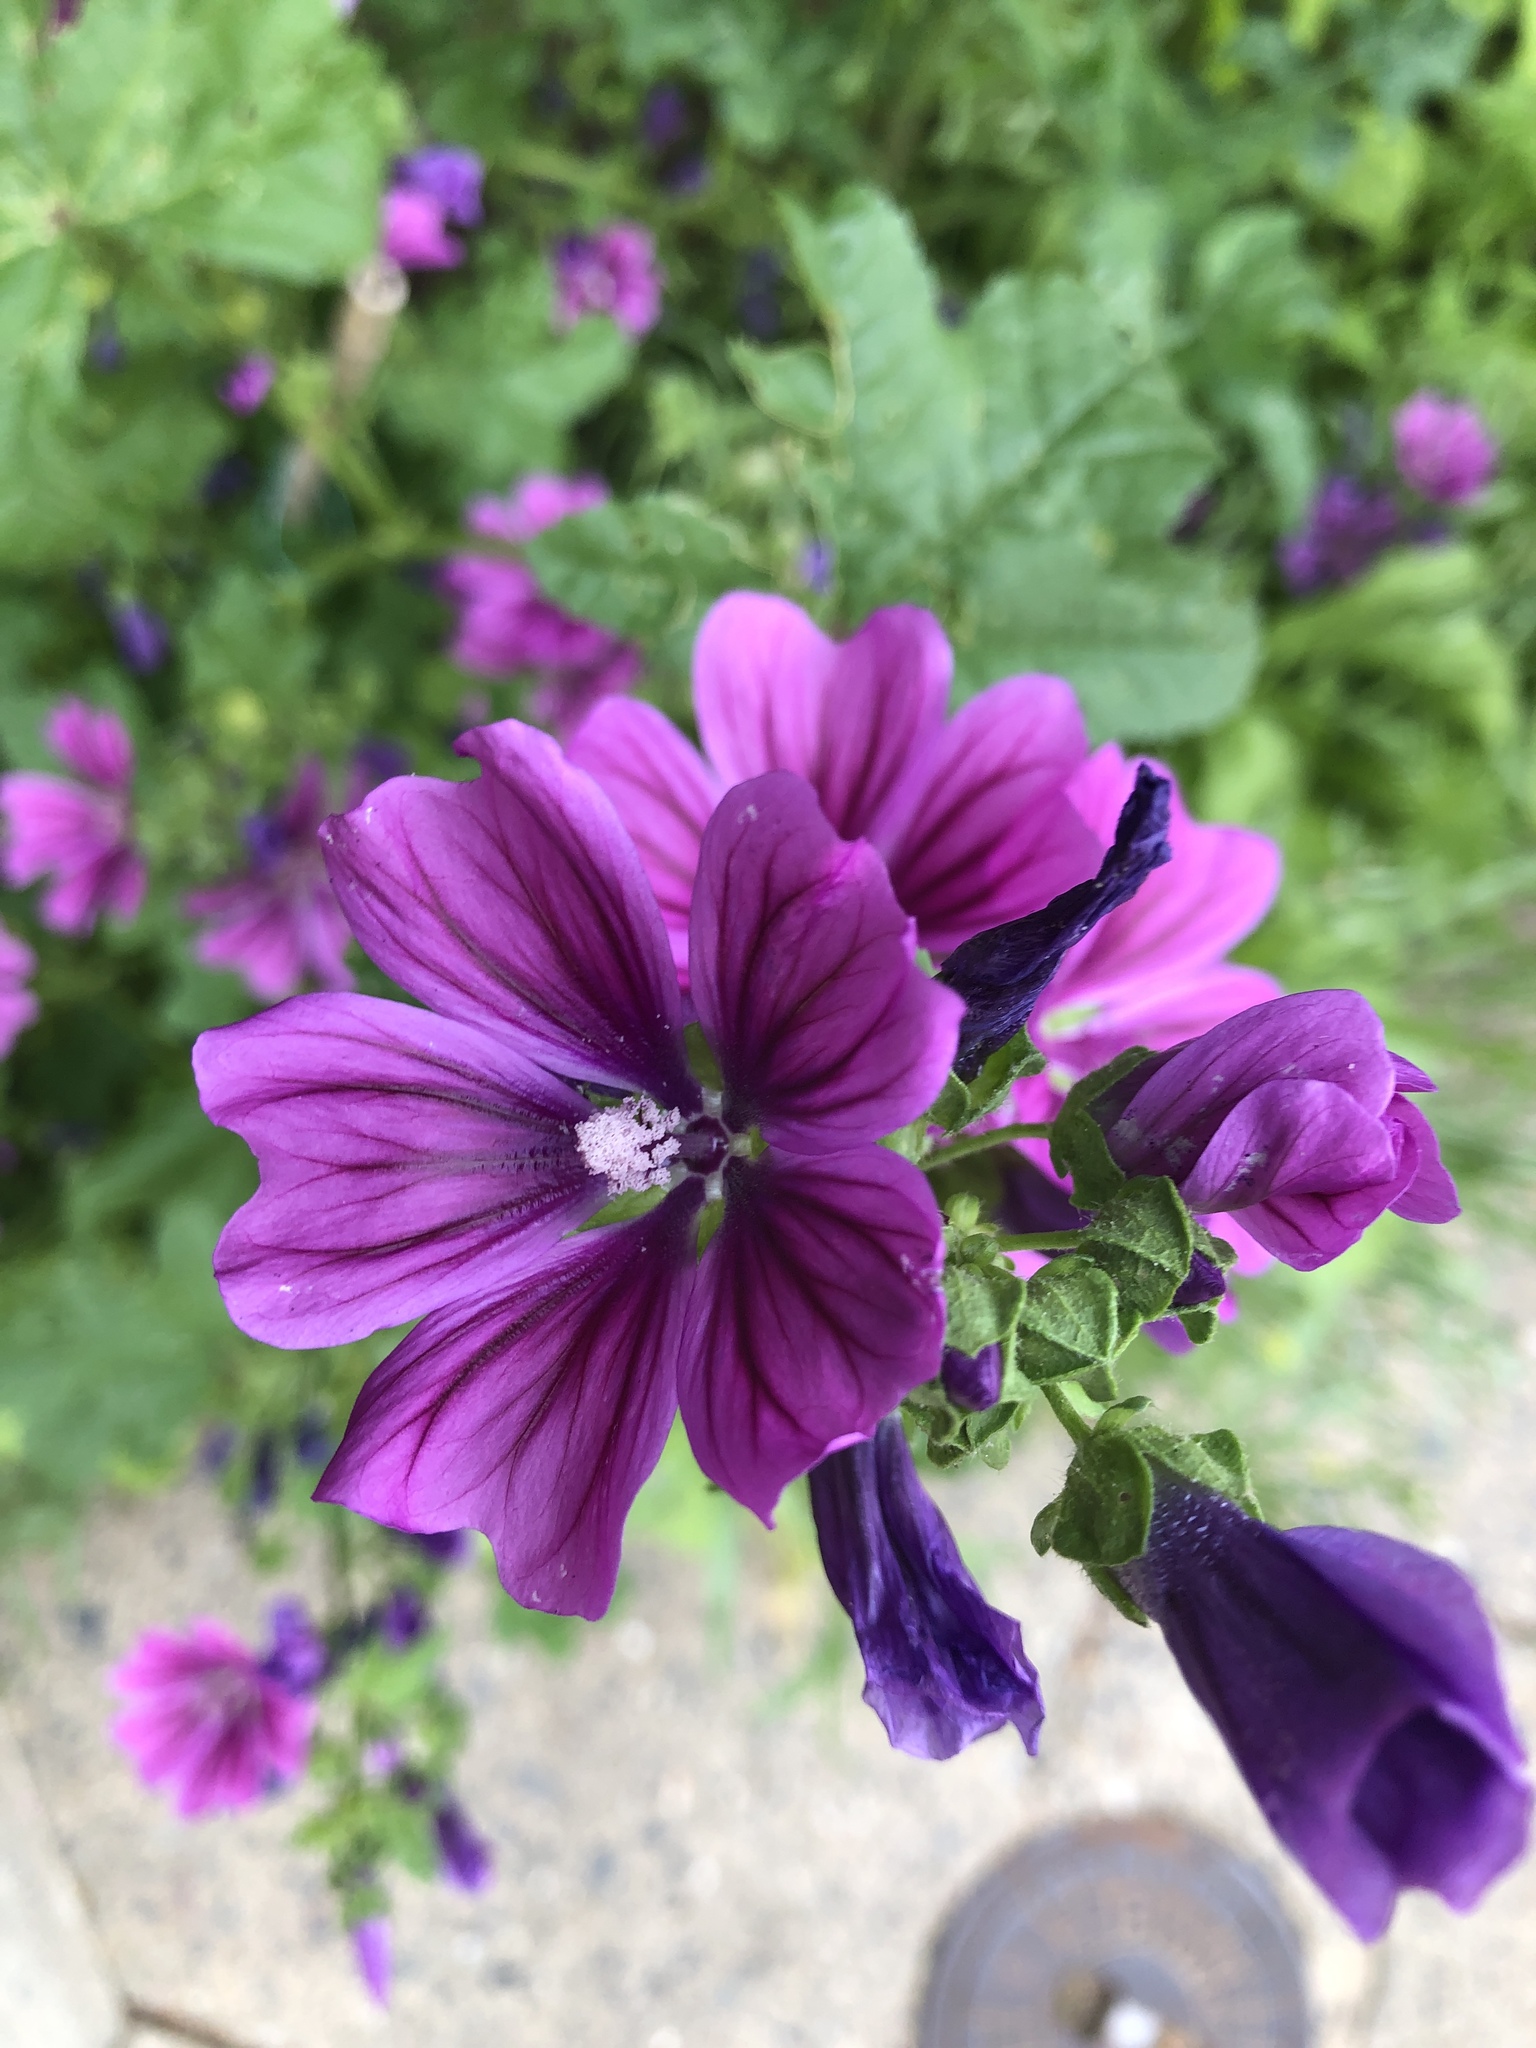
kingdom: Plantae
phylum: Tracheophyta
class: Magnoliopsida
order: Malvales
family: Malvaceae
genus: Malva
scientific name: Malva sylvestris
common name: Common mallow
